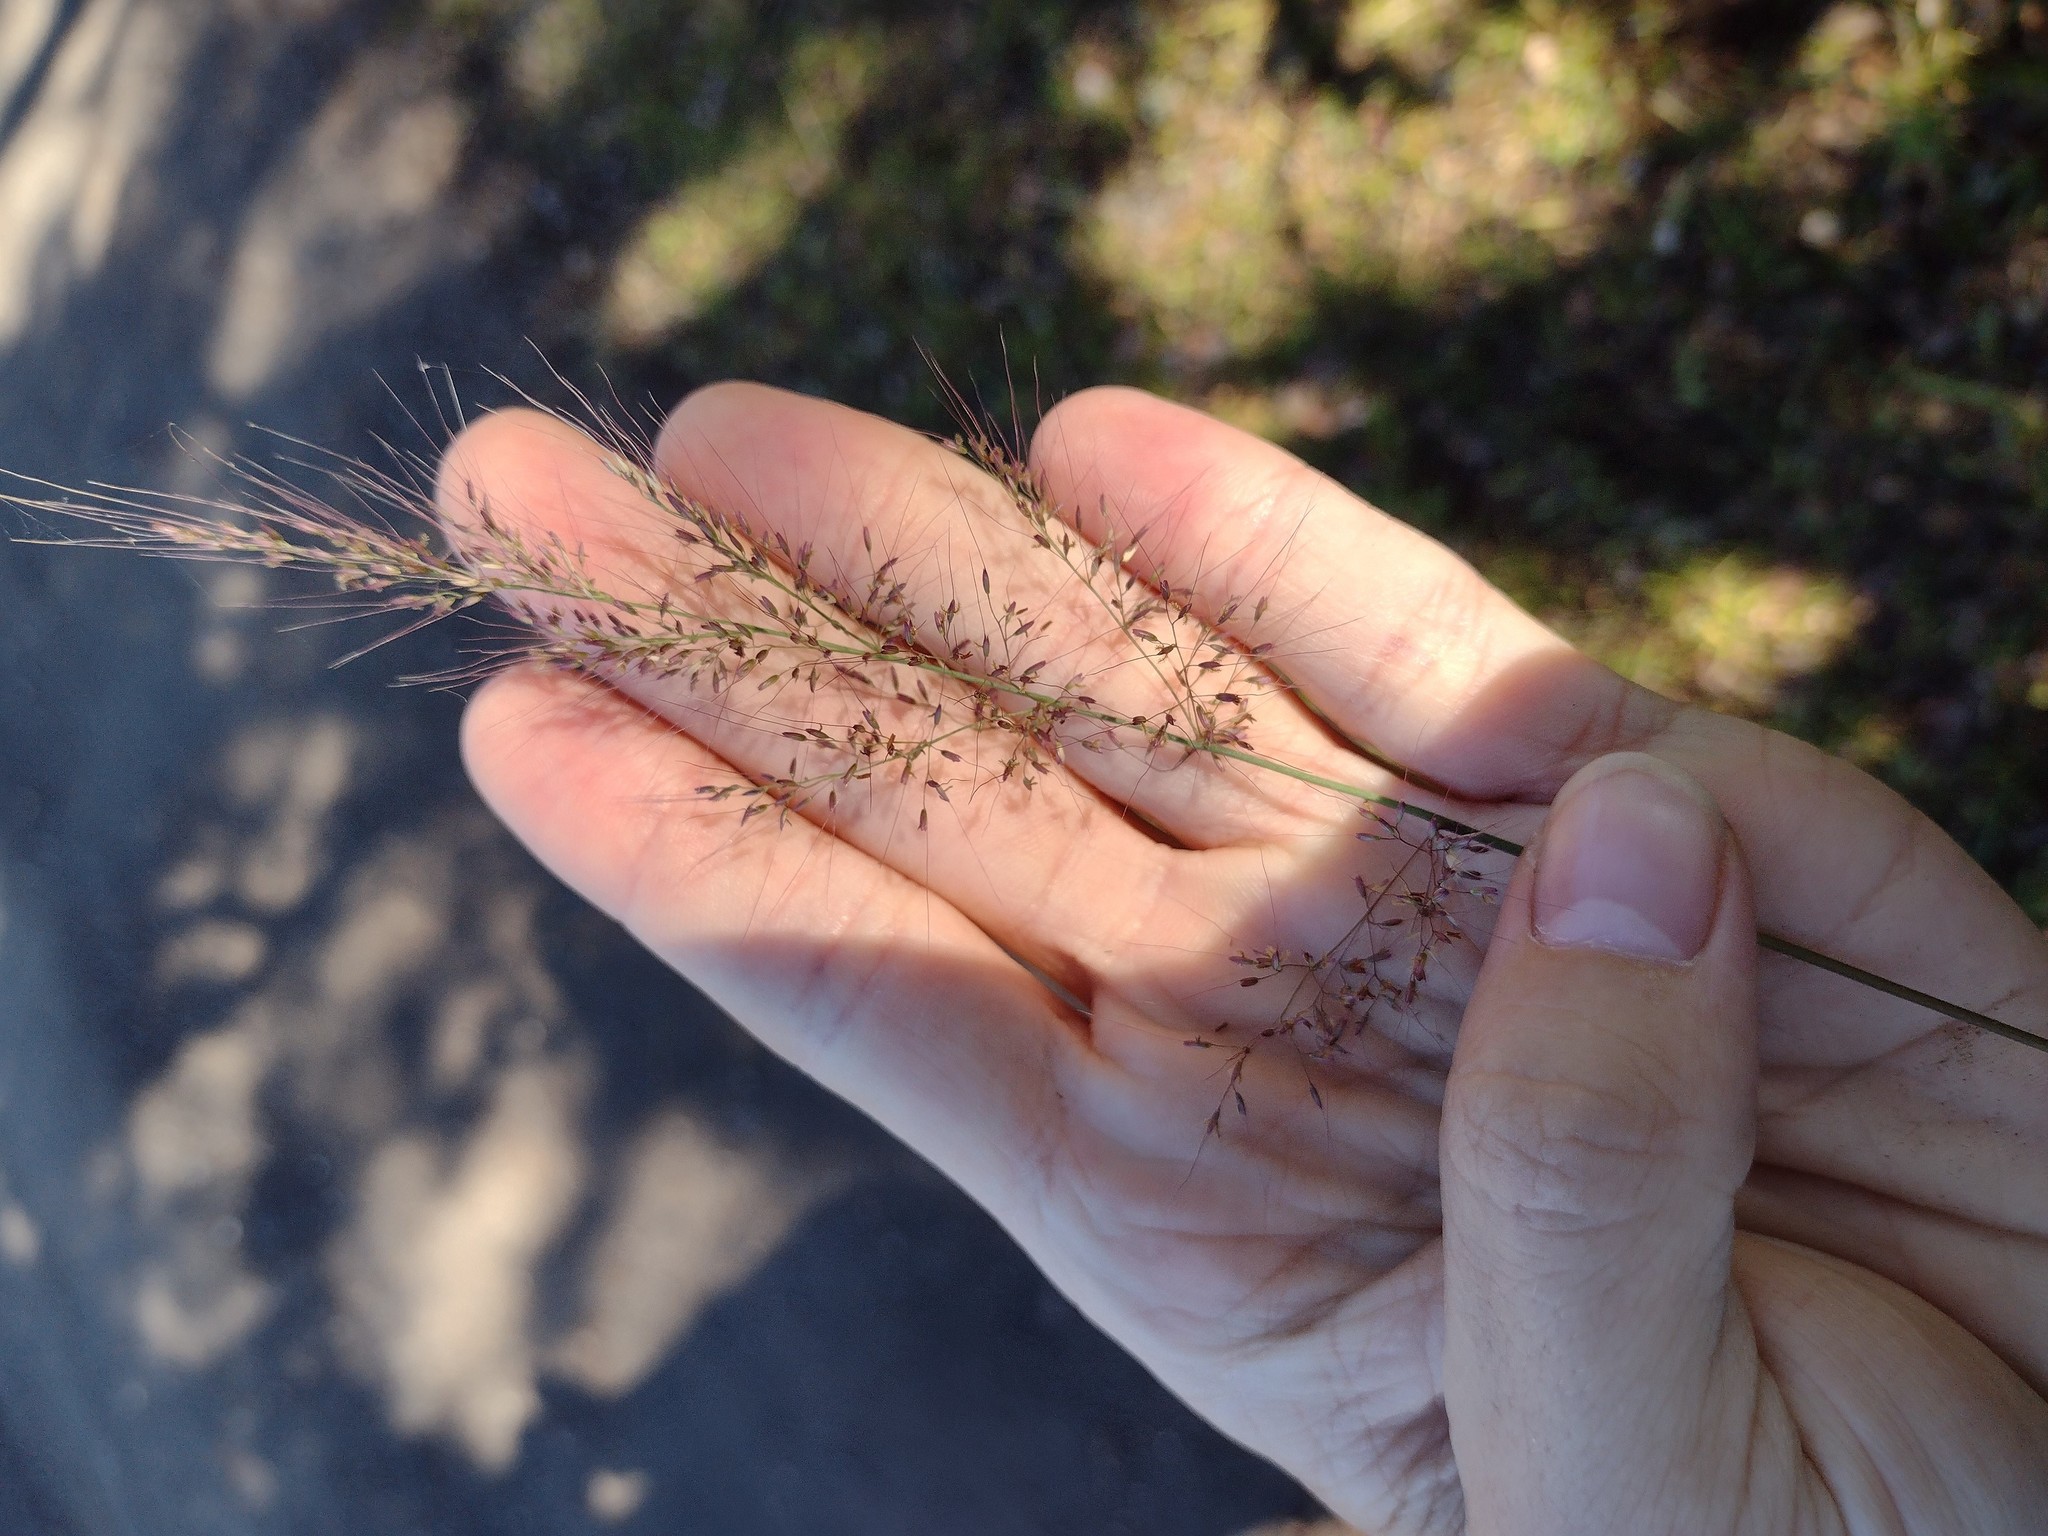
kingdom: Plantae
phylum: Tracheophyta
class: Liliopsida
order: Poales
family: Poaceae
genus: Melinis
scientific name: Melinis minutiflora
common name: Molassesgrass
